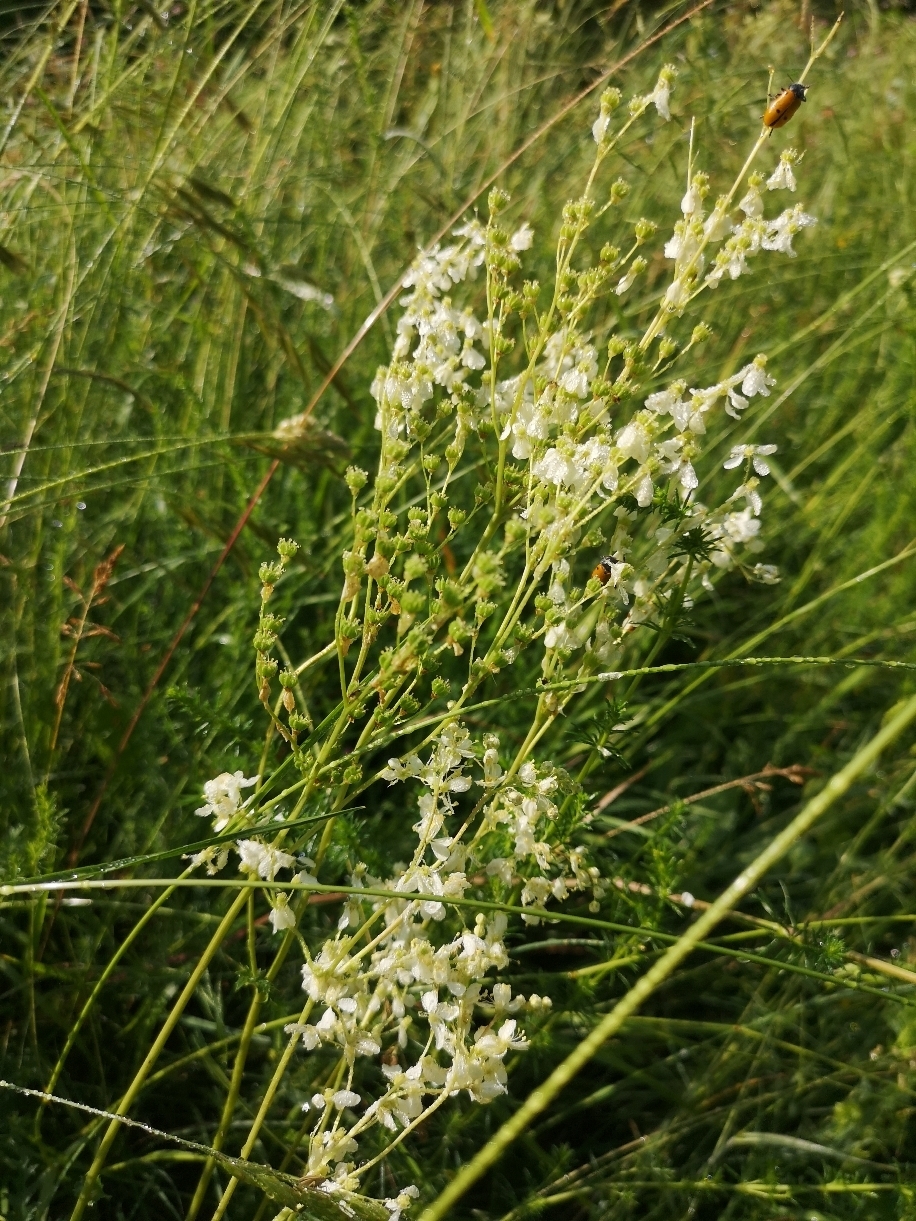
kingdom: Plantae
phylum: Tracheophyta
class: Magnoliopsida
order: Rosales
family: Rosaceae
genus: Filipendula
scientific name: Filipendula vulgaris
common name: Dropwort
